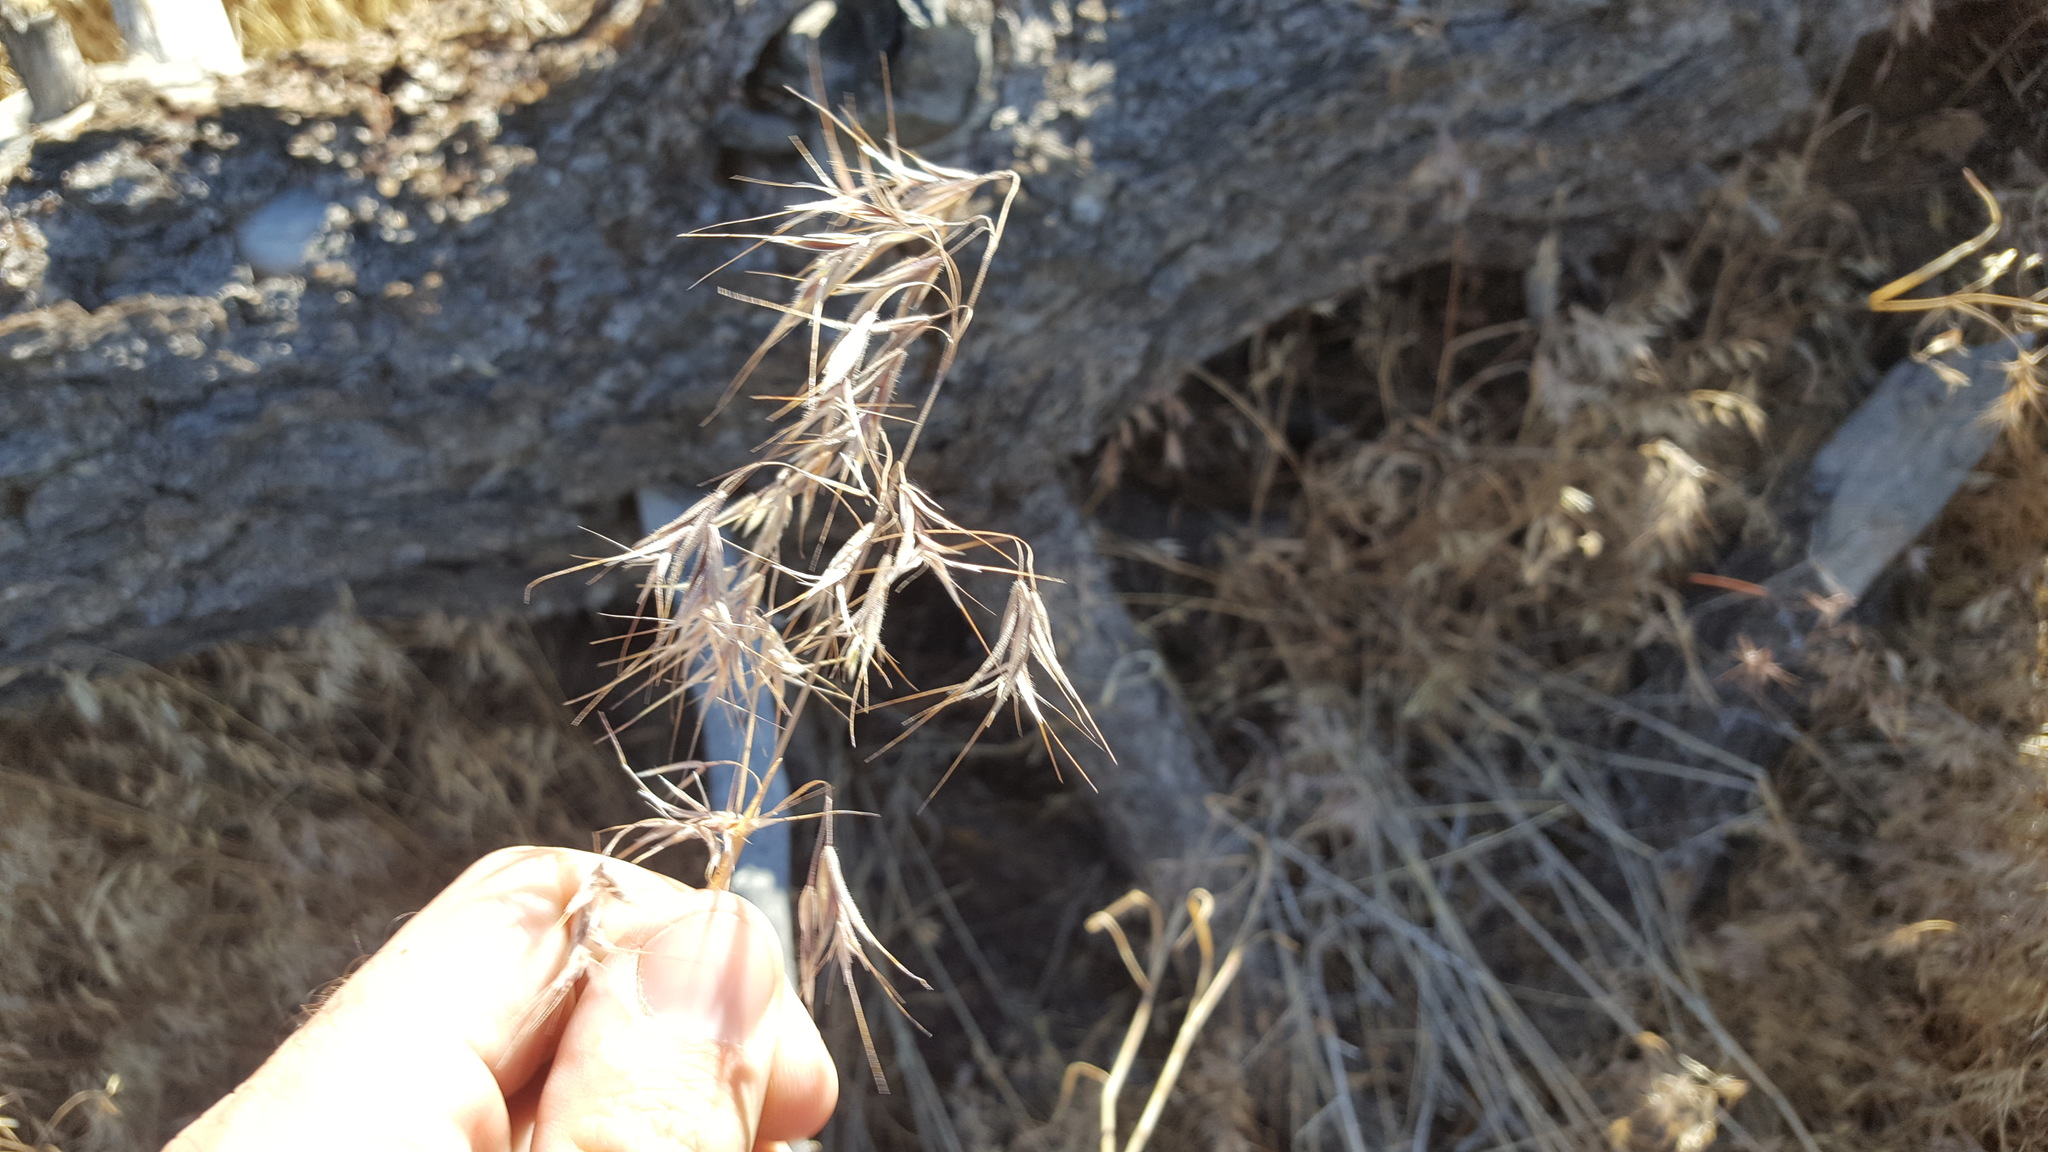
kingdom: Plantae
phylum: Tracheophyta
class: Liliopsida
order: Poales
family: Poaceae
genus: Bromus
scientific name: Bromus tectorum
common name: Cheatgrass
